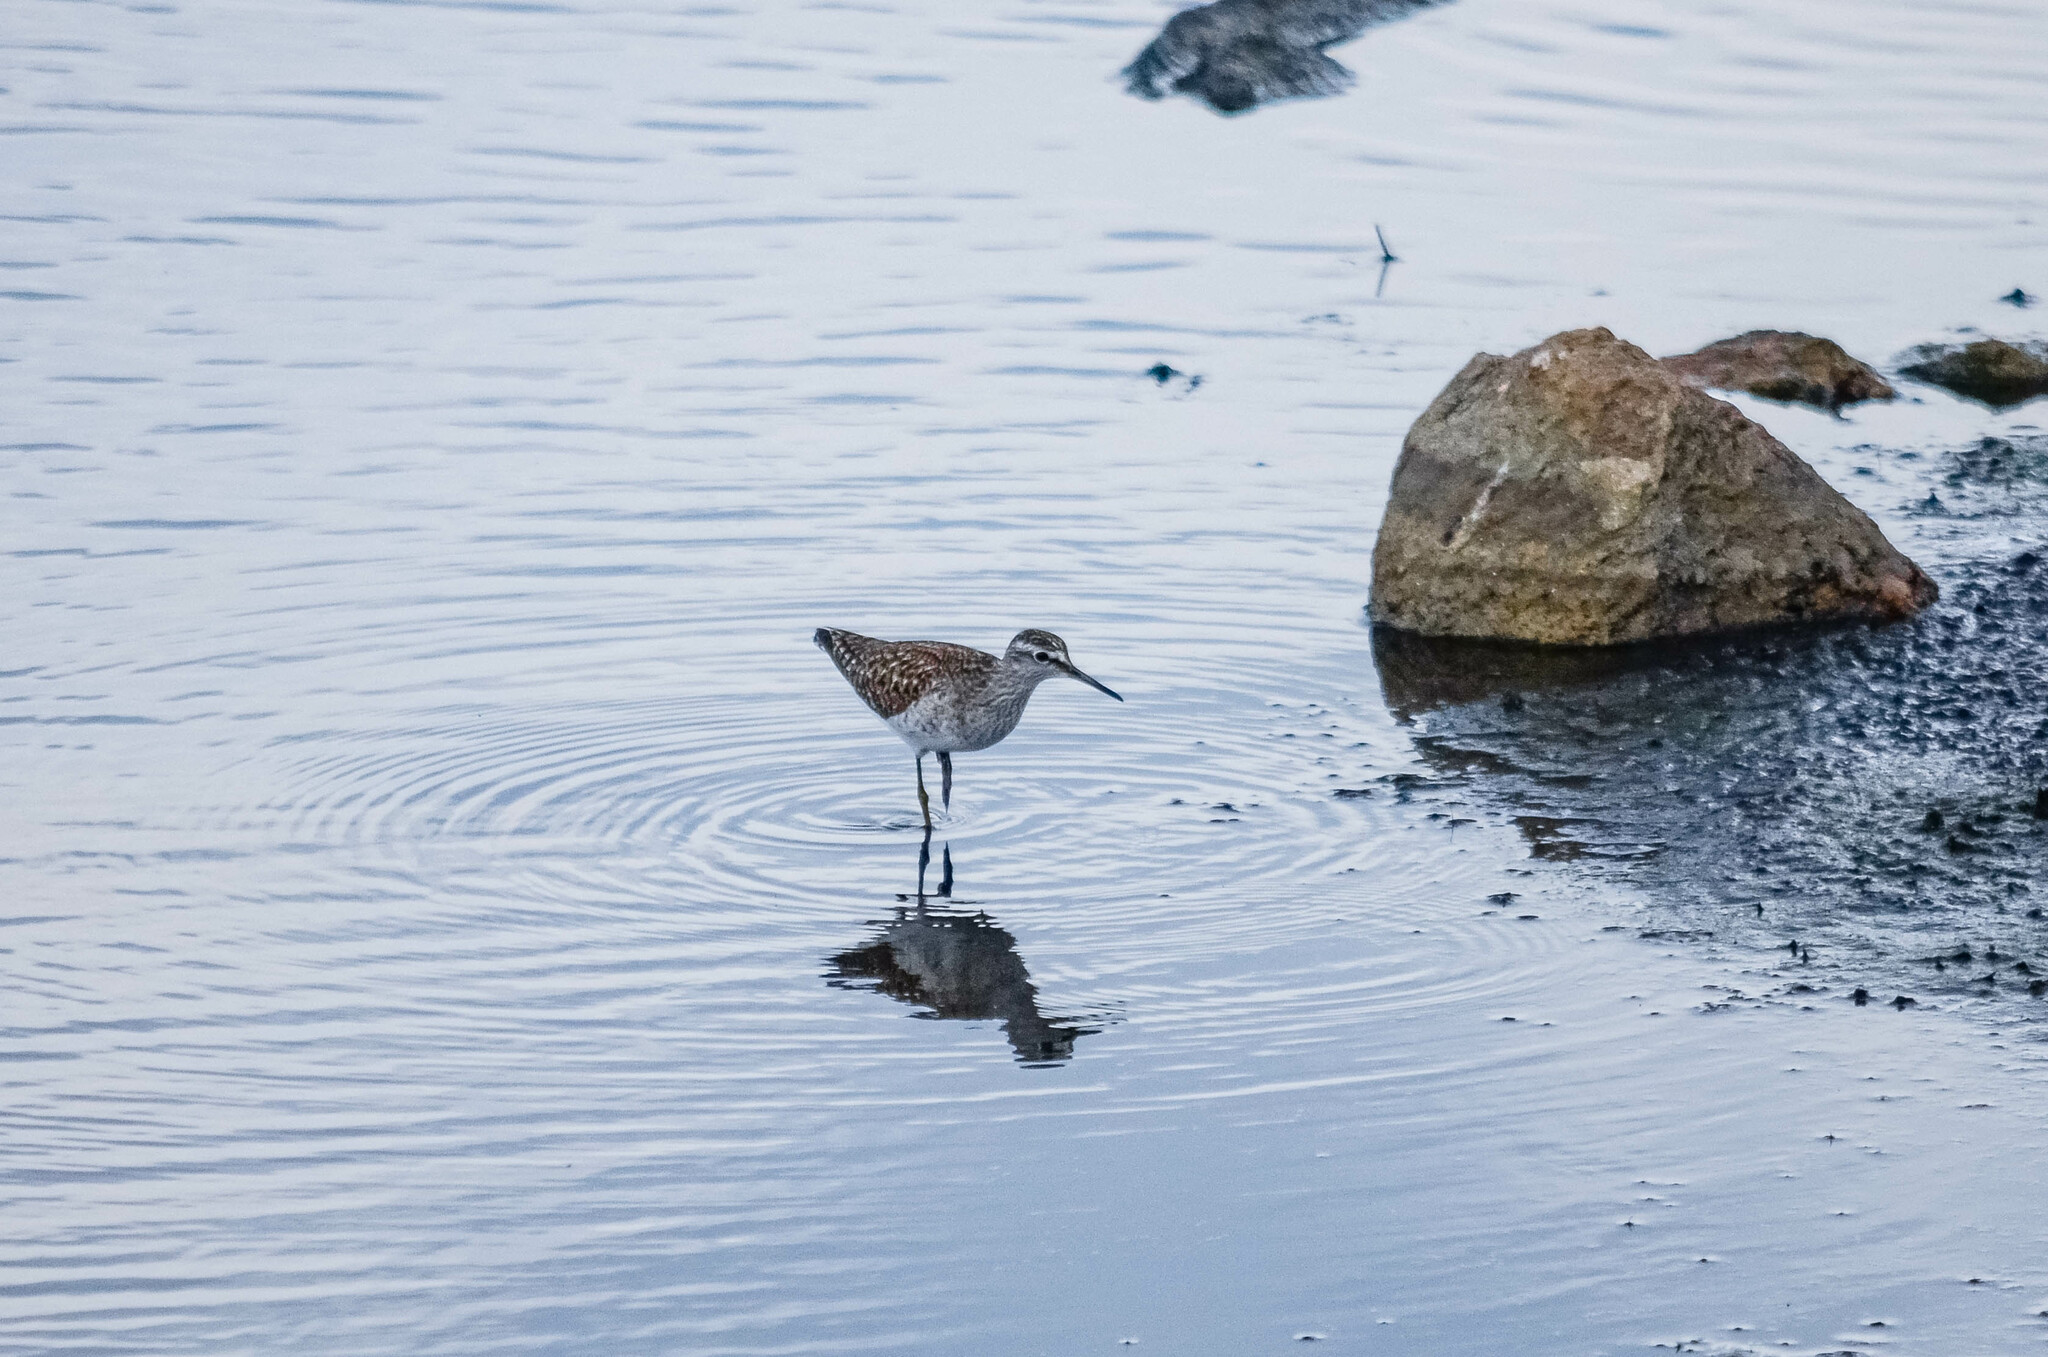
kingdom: Animalia
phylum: Chordata
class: Aves
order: Charadriiformes
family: Scolopacidae
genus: Tringa
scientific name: Tringa glareola
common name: Wood sandpiper
